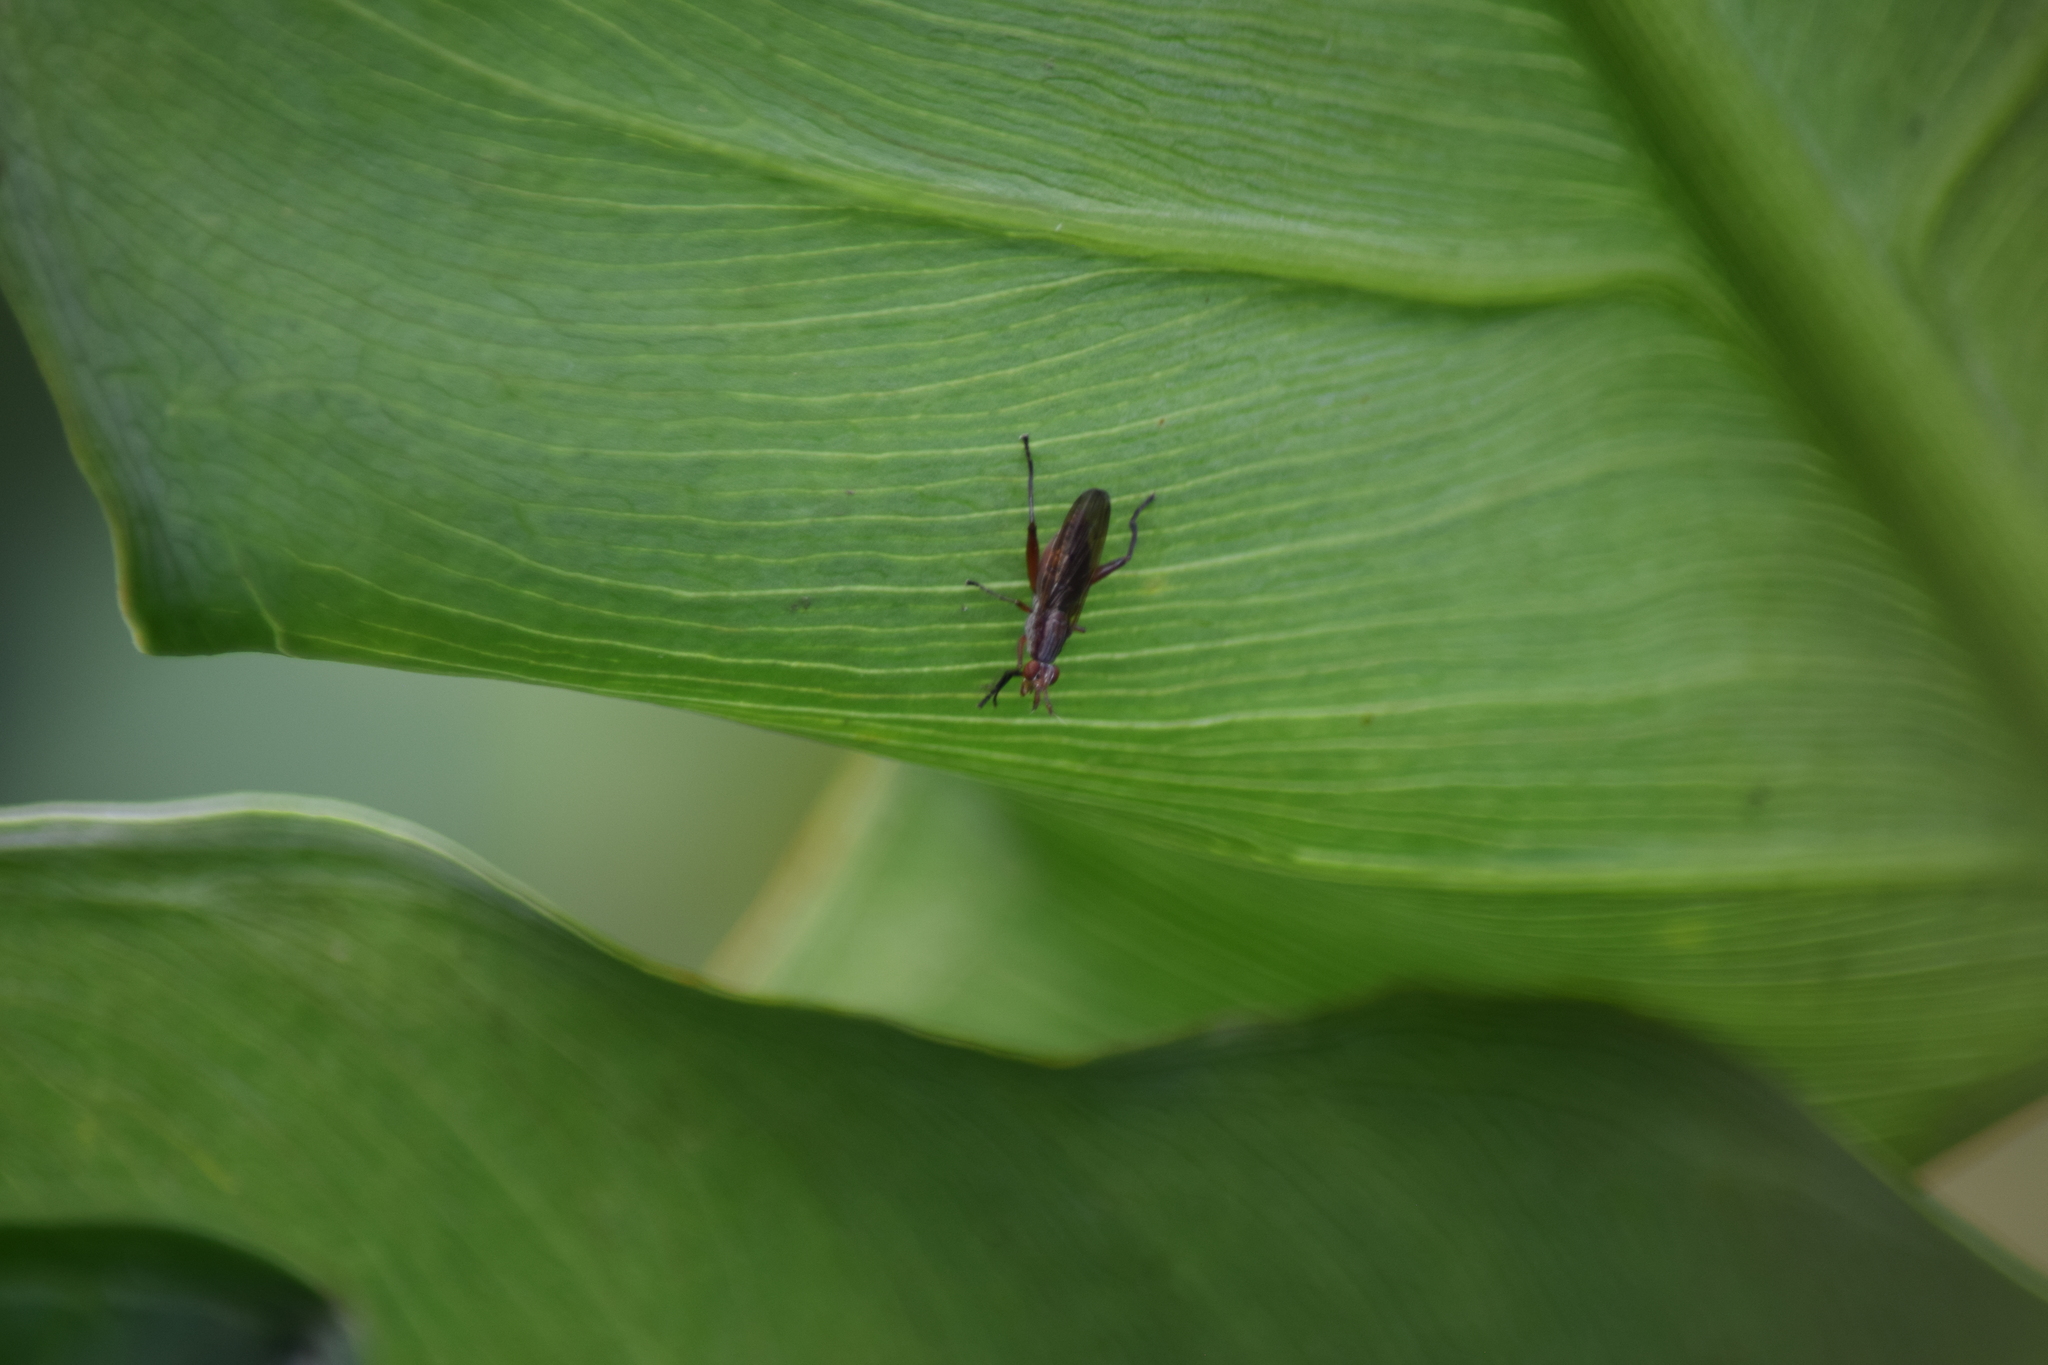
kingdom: Animalia
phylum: Arthropoda
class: Insecta
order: Diptera
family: Sciomyzidae
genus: Sepedon
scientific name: Sepedon
